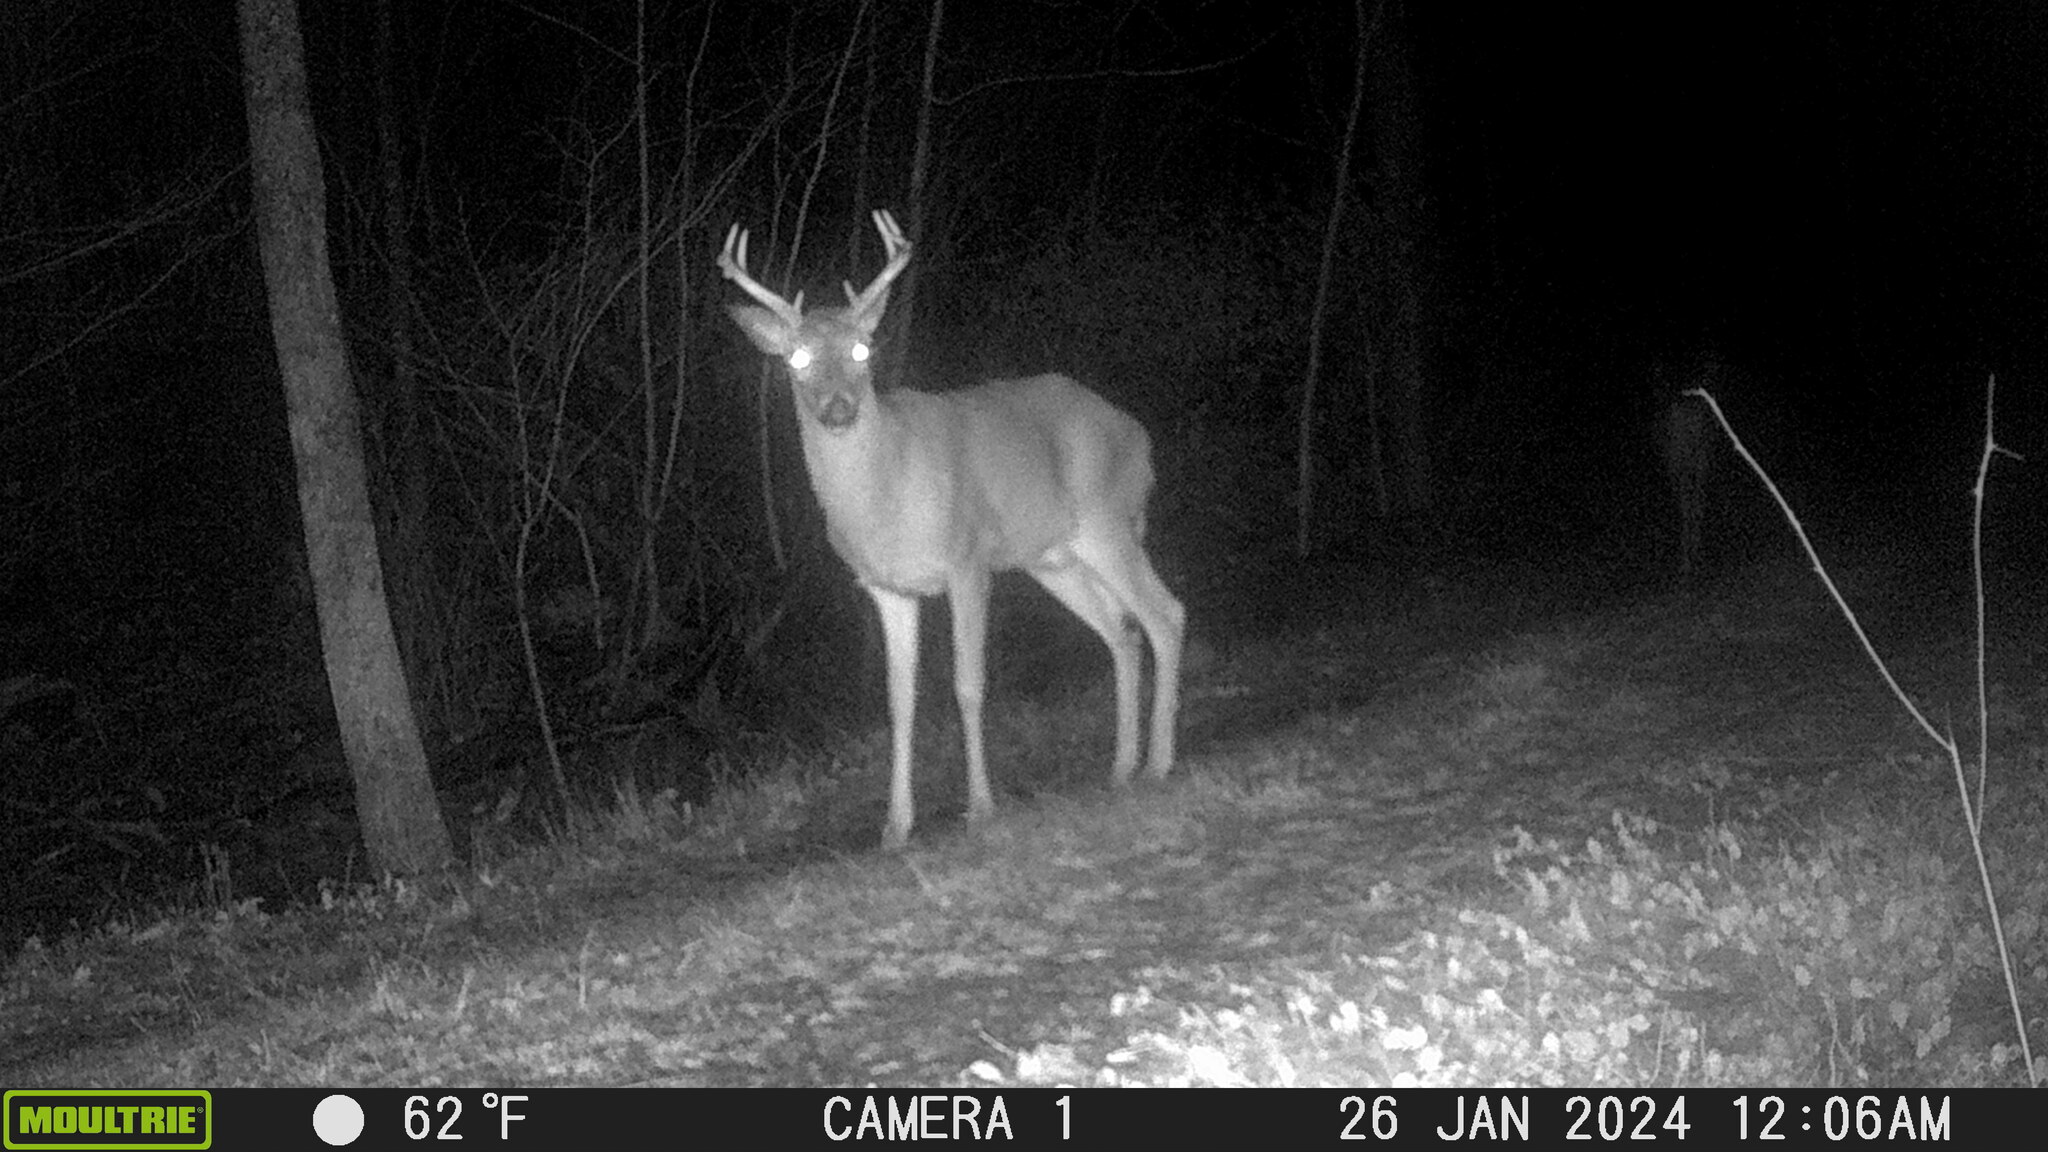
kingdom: Animalia
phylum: Chordata
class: Mammalia
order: Artiodactyla
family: Cervidae
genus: Odocoileus
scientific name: Odocoileus virginianus
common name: White-tailed deer
